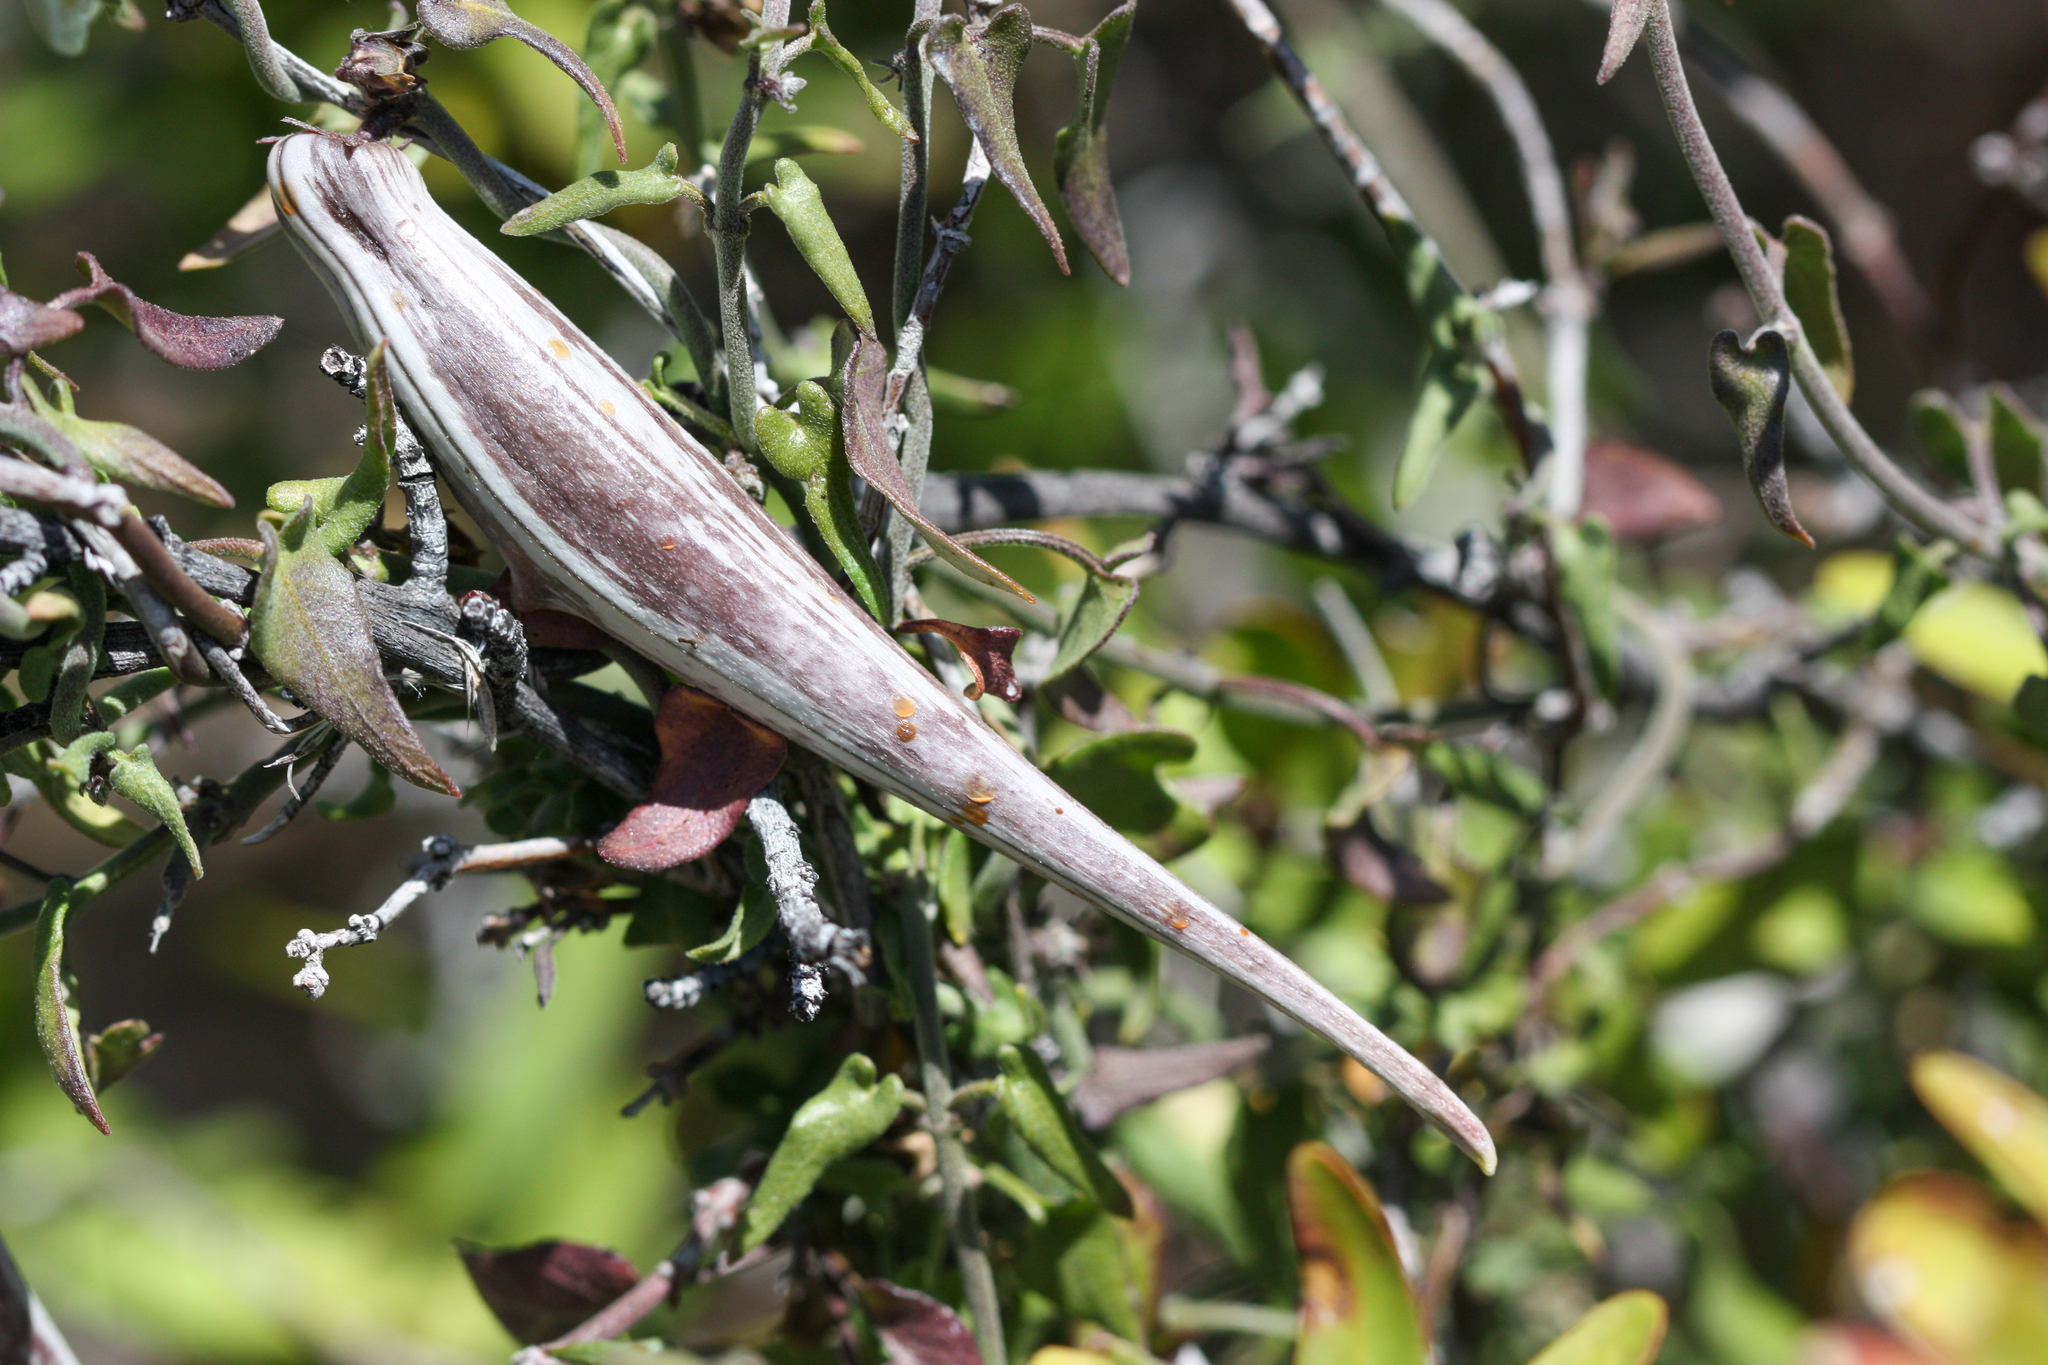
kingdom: Plantae
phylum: Tracheophyta
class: Magnoliopsida
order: Gentianales
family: Apocynaceae
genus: Matelea
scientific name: Matelea parvifolia
